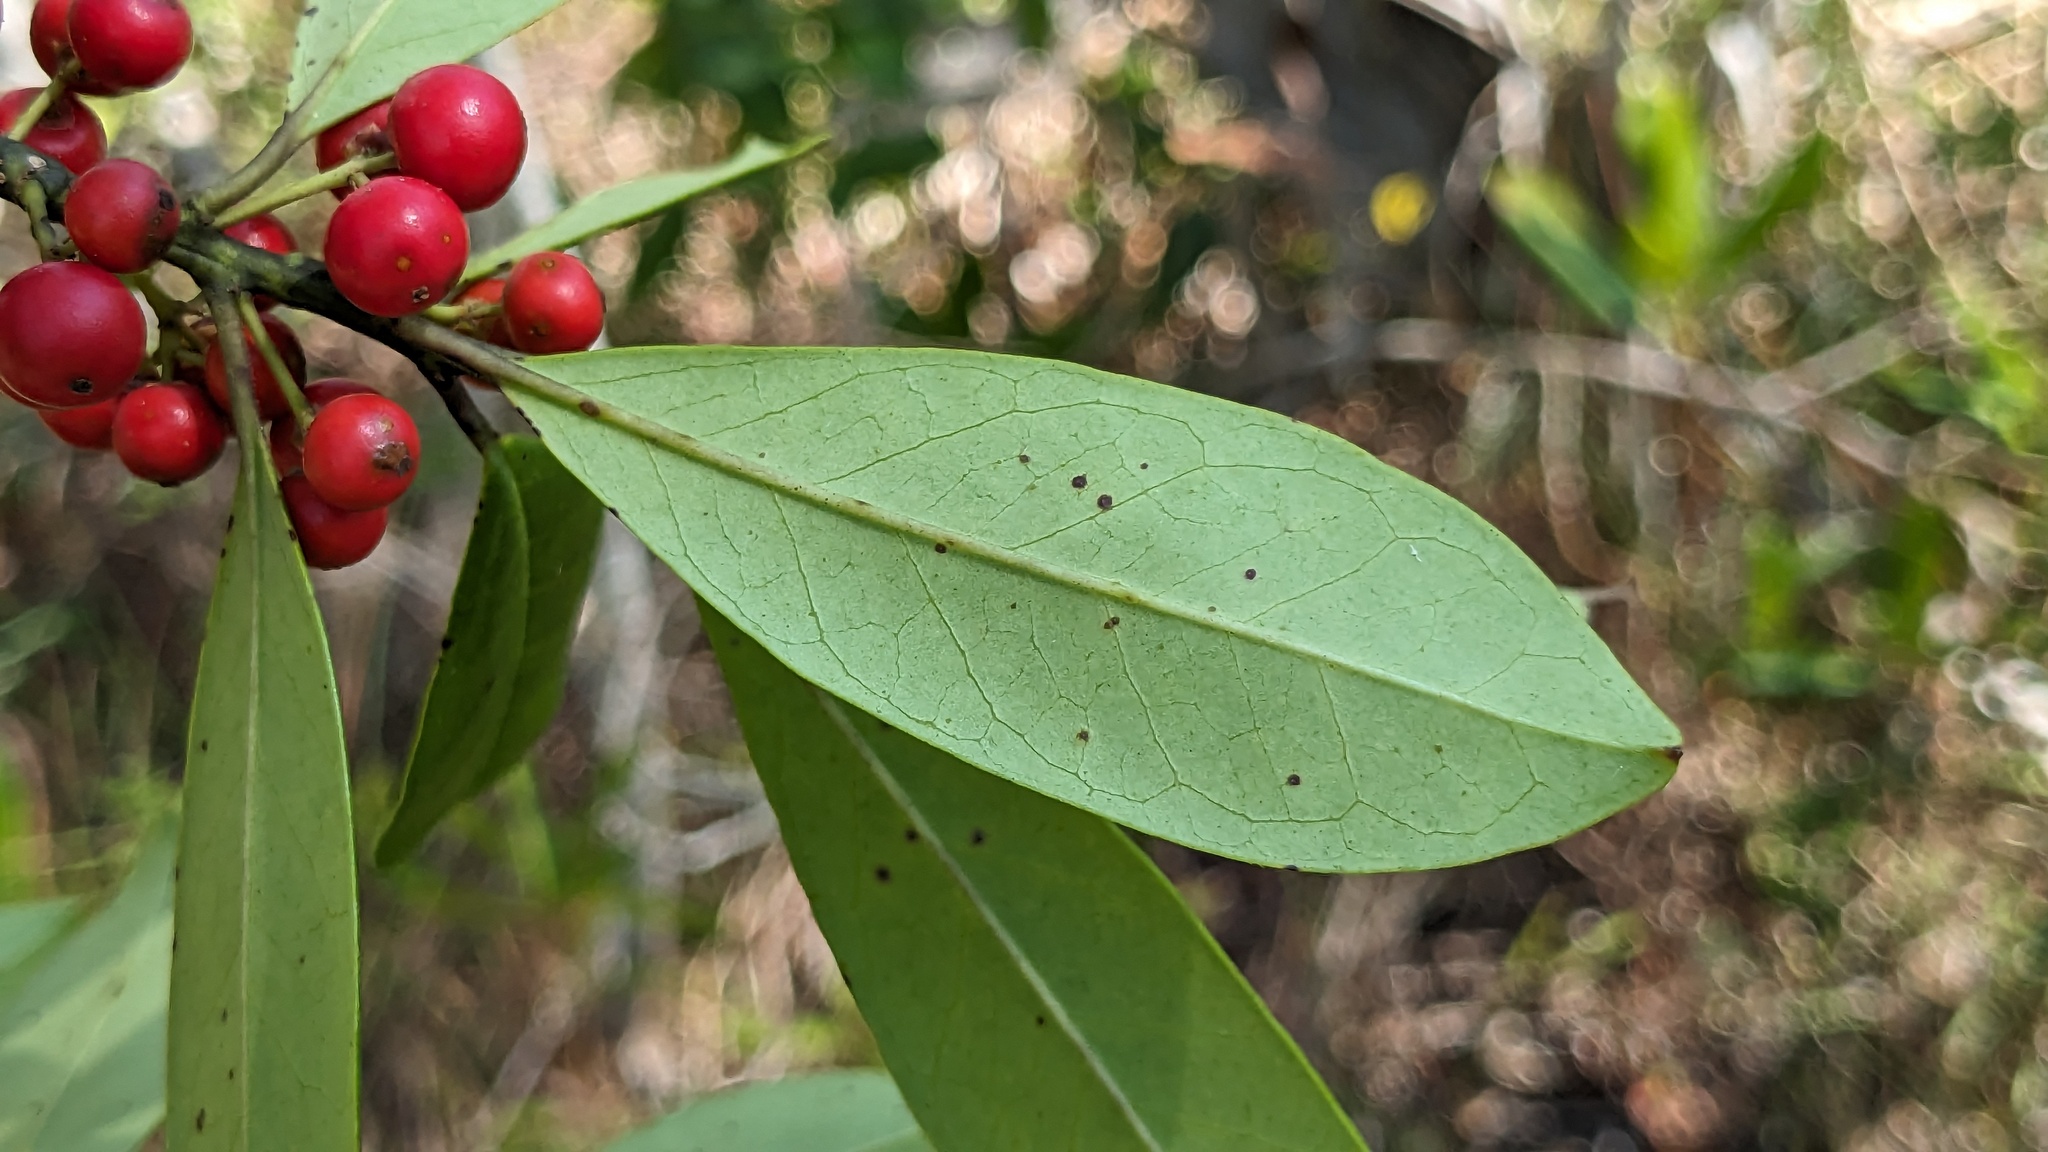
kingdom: Plantae
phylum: Tracheophyta
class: Magnoliopsida
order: Aquifoliales
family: Aquifoliaceae
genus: Ilex
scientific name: Ilex cassine
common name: Dahoon
